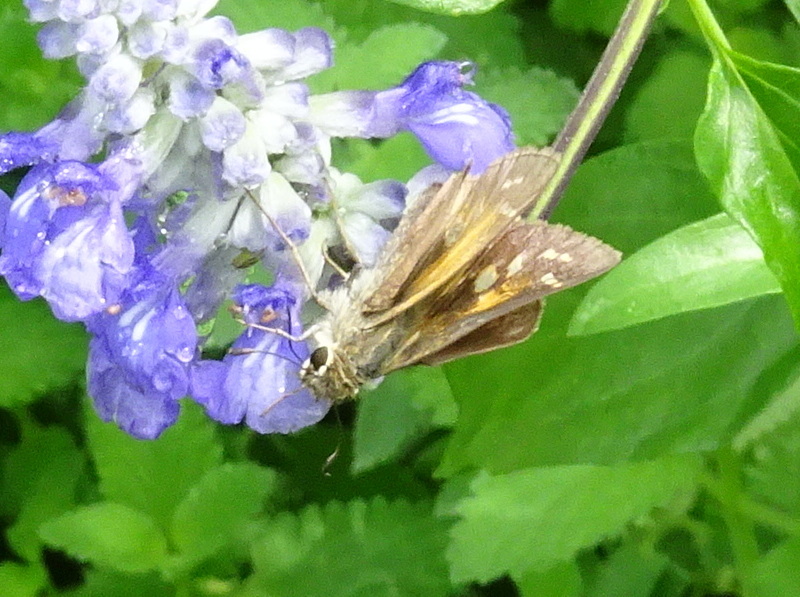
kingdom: Animalia
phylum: Arthropoda
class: Insecta
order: Lepidoptera
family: Hesperiidae
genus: Atalopedes
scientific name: Atalopedes
